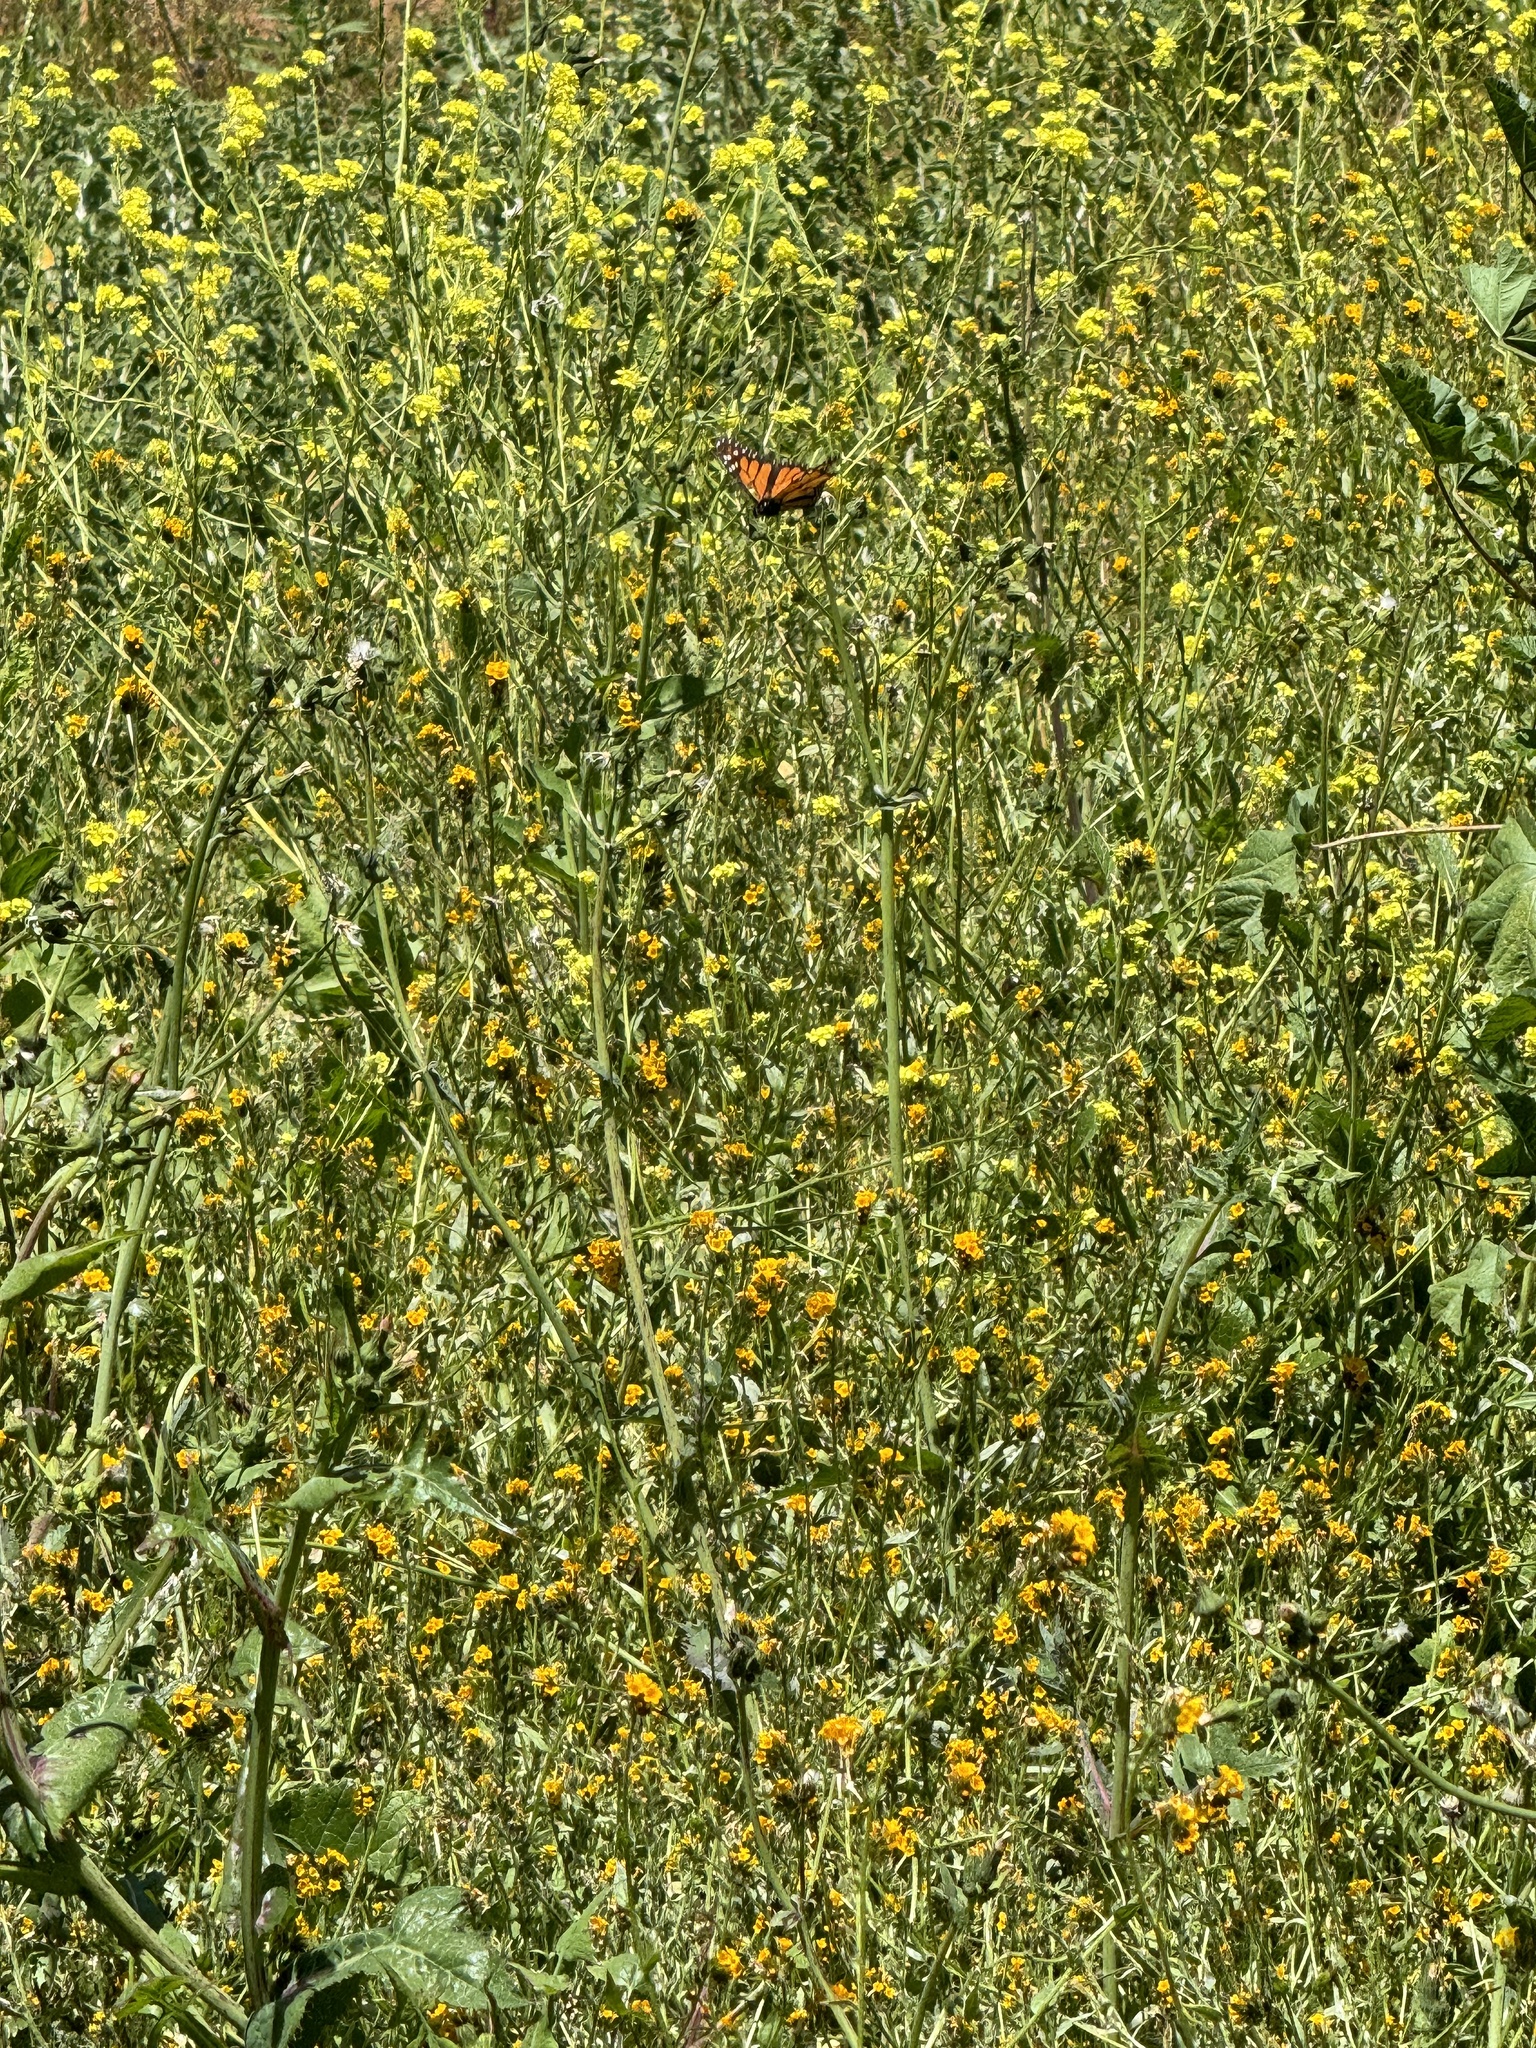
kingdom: Animalia
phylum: Arthropoda
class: Insecta
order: Lepidoptera
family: Nymphalidae
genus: Danaus
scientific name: Danaus plexippus
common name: Monarch
